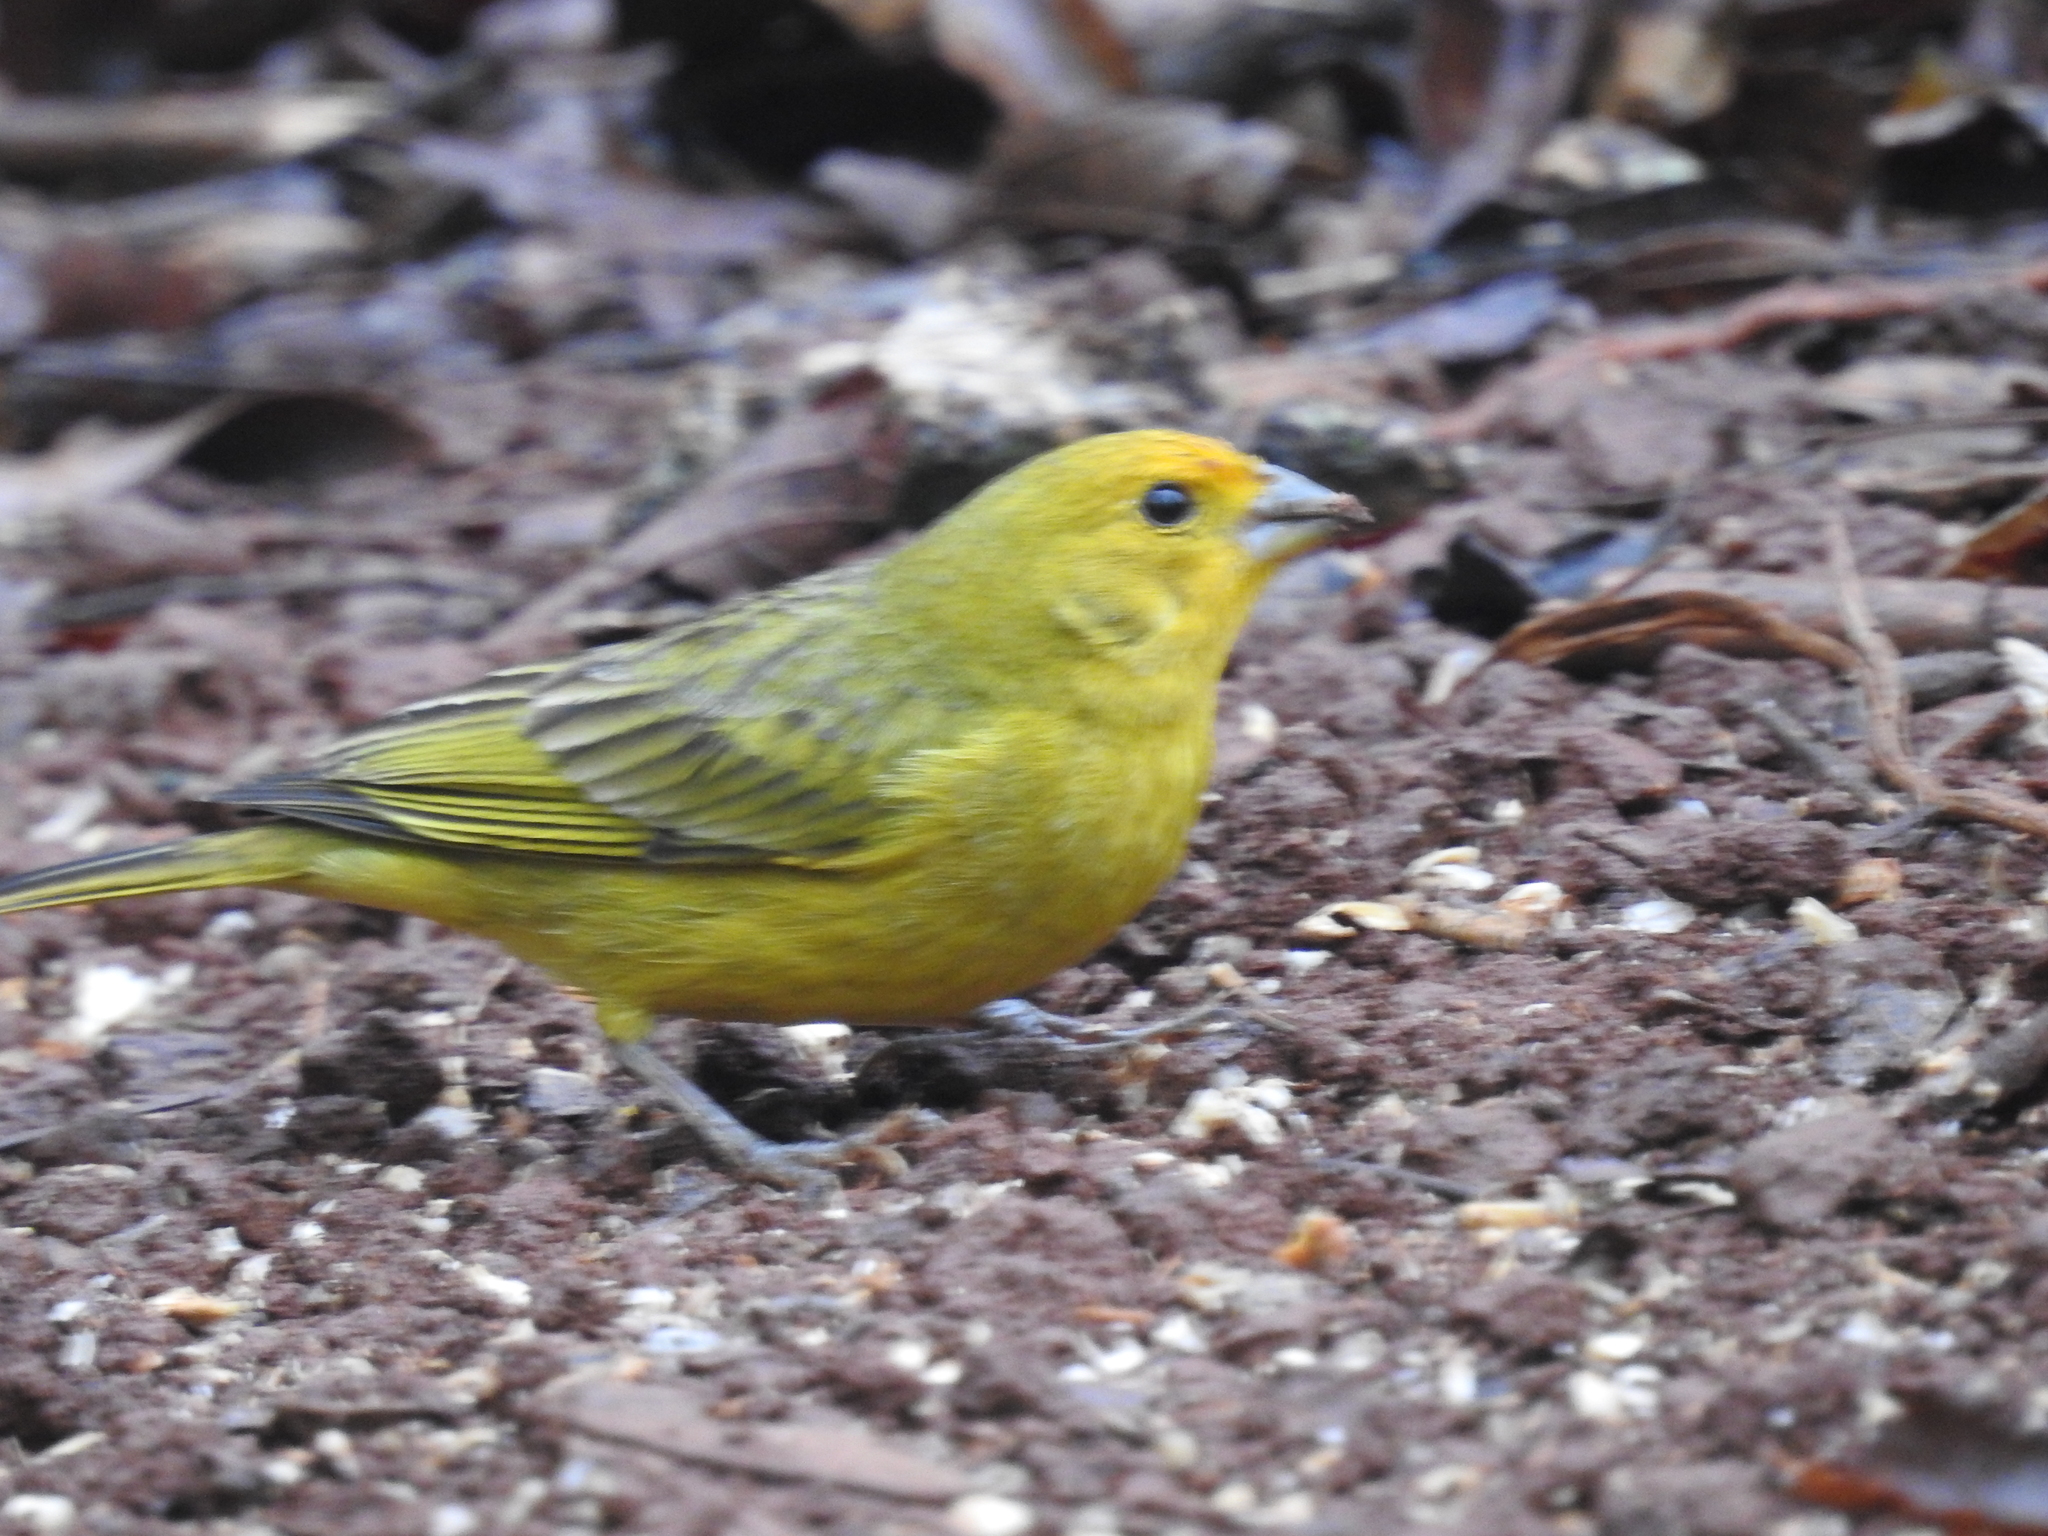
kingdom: Animalia
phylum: Chordata
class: Aves
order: Passeriformes
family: Thraupidae
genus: Sicalis
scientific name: Sicalis flaveola
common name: Saffron finch
